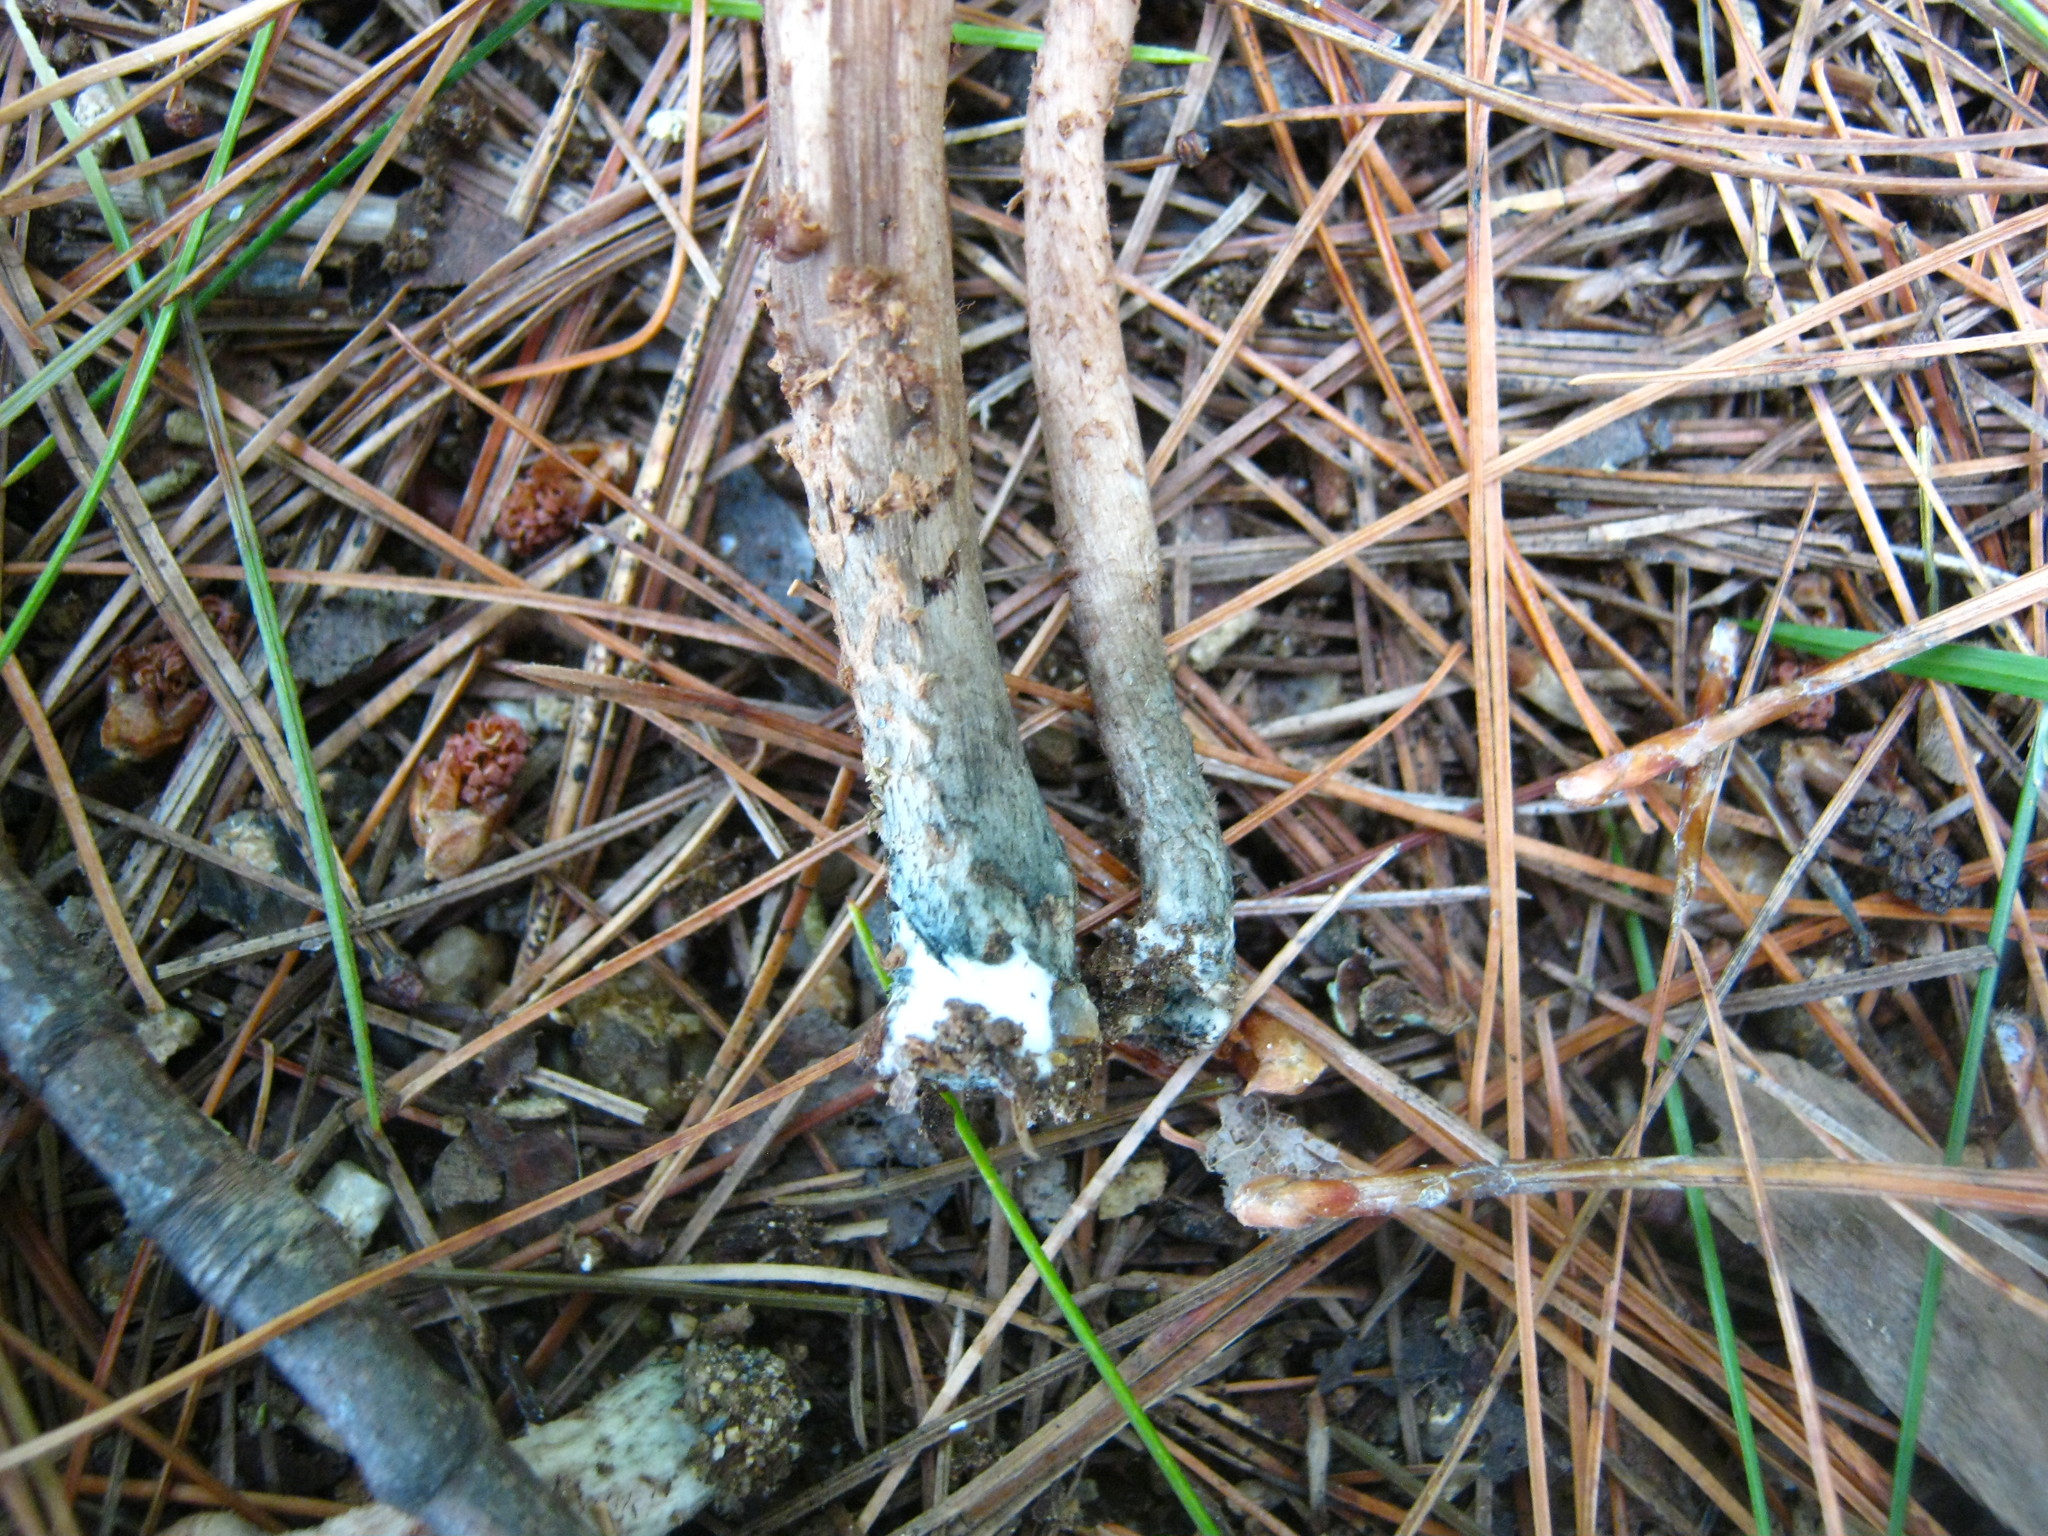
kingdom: Fungi
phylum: Basidiomycota
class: Agaricomycetes
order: Agaricales
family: Inocybaceae
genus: Inosperma
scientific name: Inosperma calamistratum
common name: Greenfoot fibrecap
